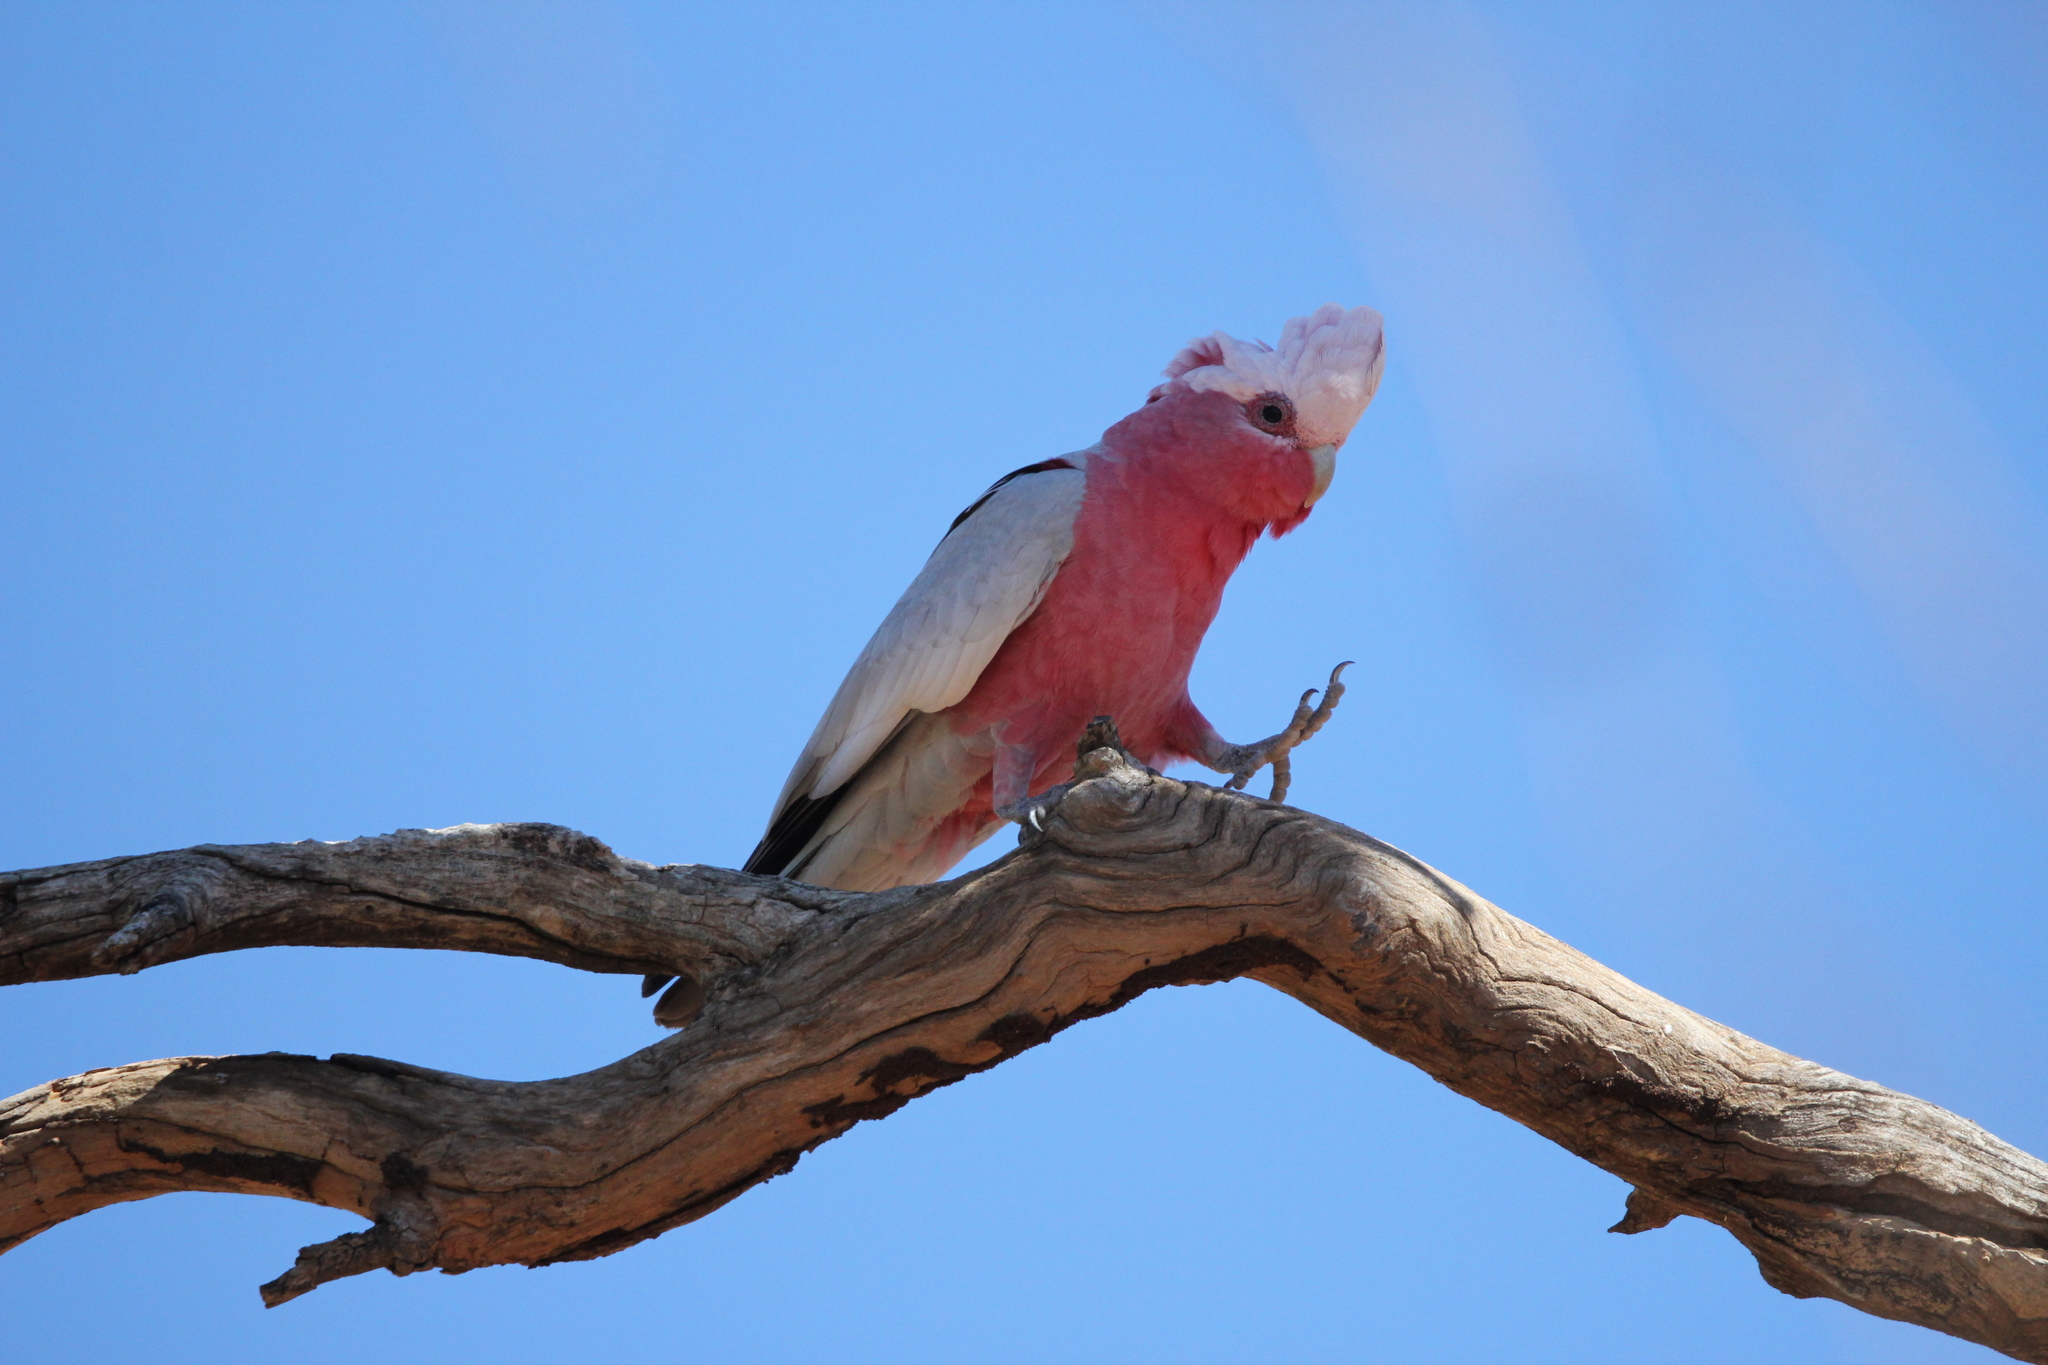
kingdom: Animalia
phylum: Chordata
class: Aves
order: Psittaciformes
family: Psittacidae
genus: Eolophus
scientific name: Eolophus roseicapilla
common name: Galah
